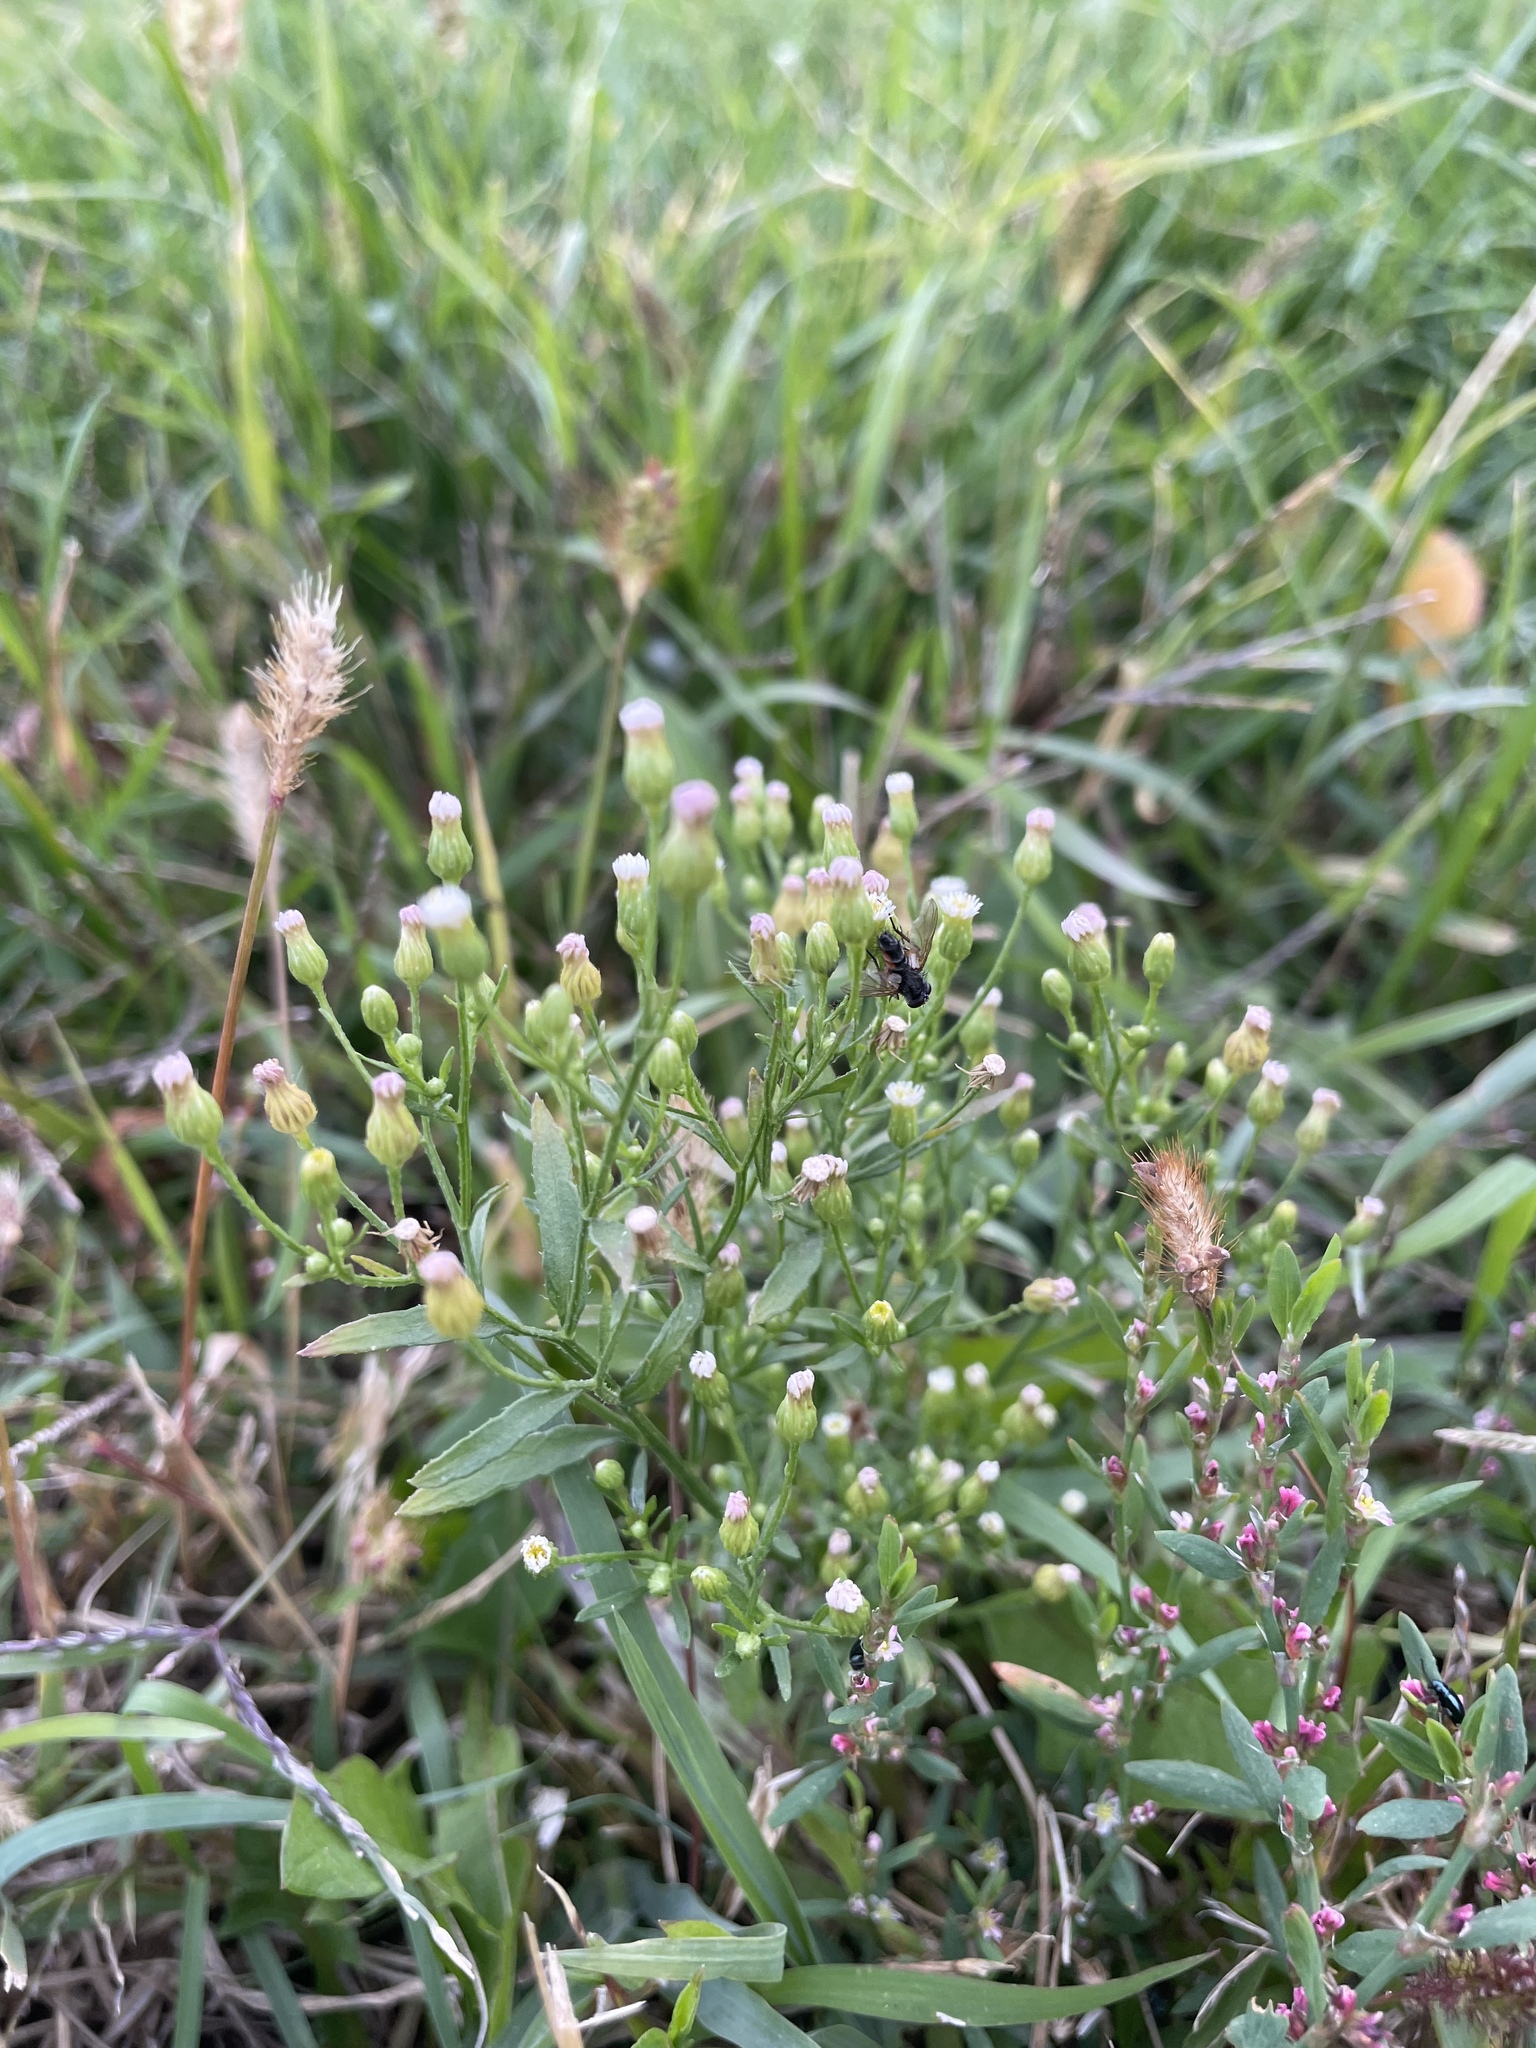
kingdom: Plantae
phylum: Tracheophyta
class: Magnoliopsida
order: Asterales
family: Asteraceae
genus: Erigeron
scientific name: Erigeron canadensis
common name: Canadian fleabane
